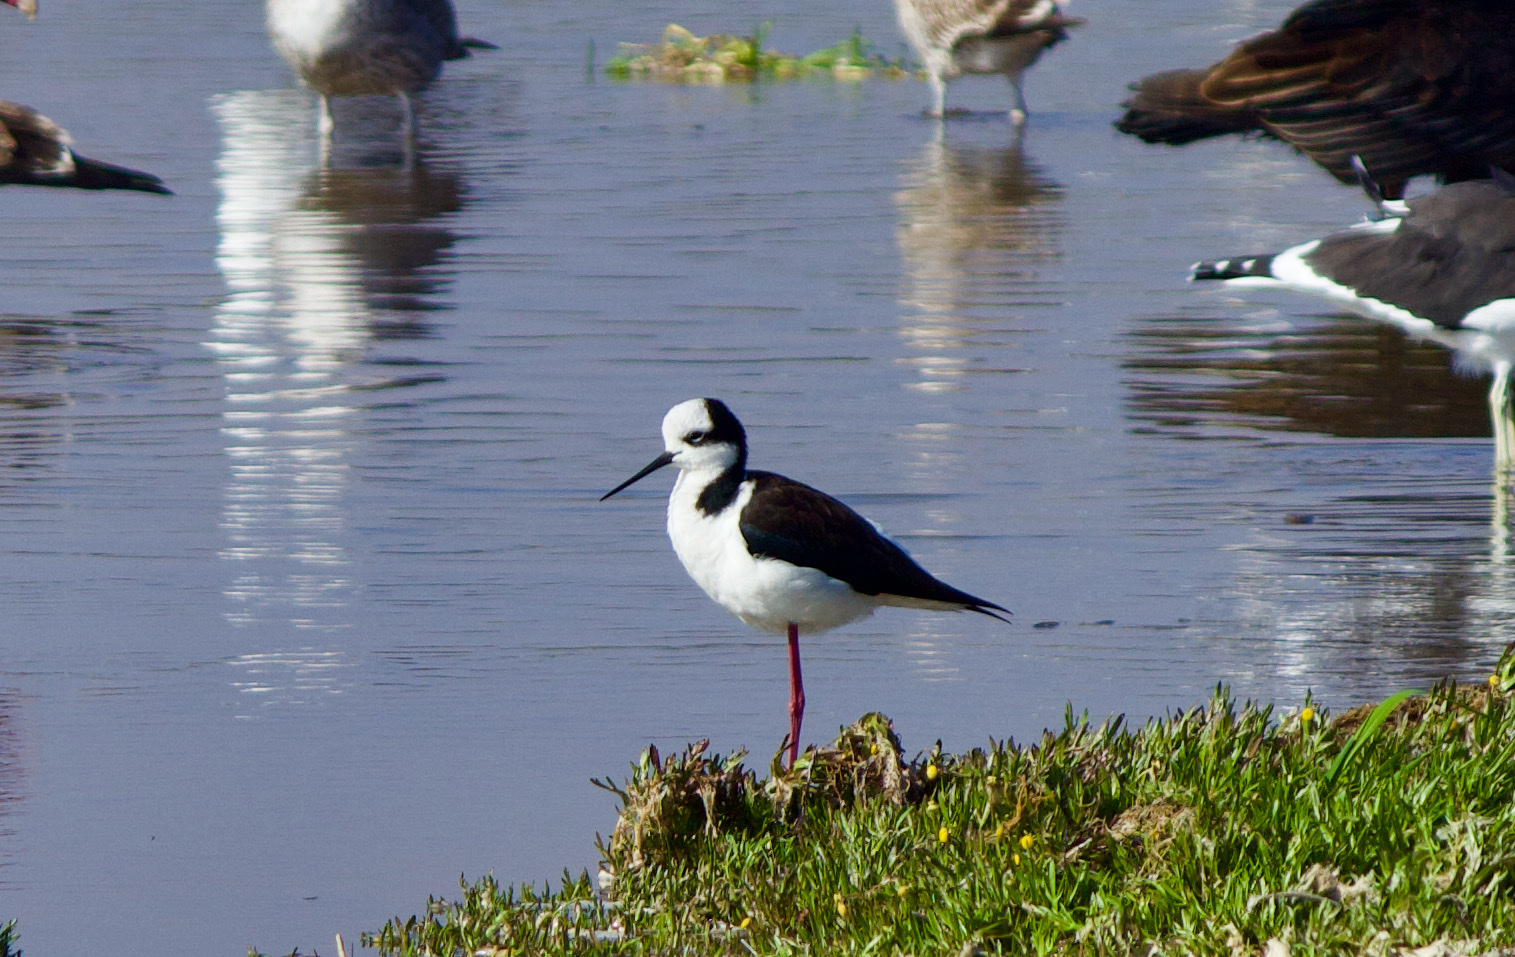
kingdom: Animalia
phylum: Chordata
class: Aves
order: Charadriiformes
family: Recurvirostridae
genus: Himantopus
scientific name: Himantopus mexicanus
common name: Black-necked stilt
